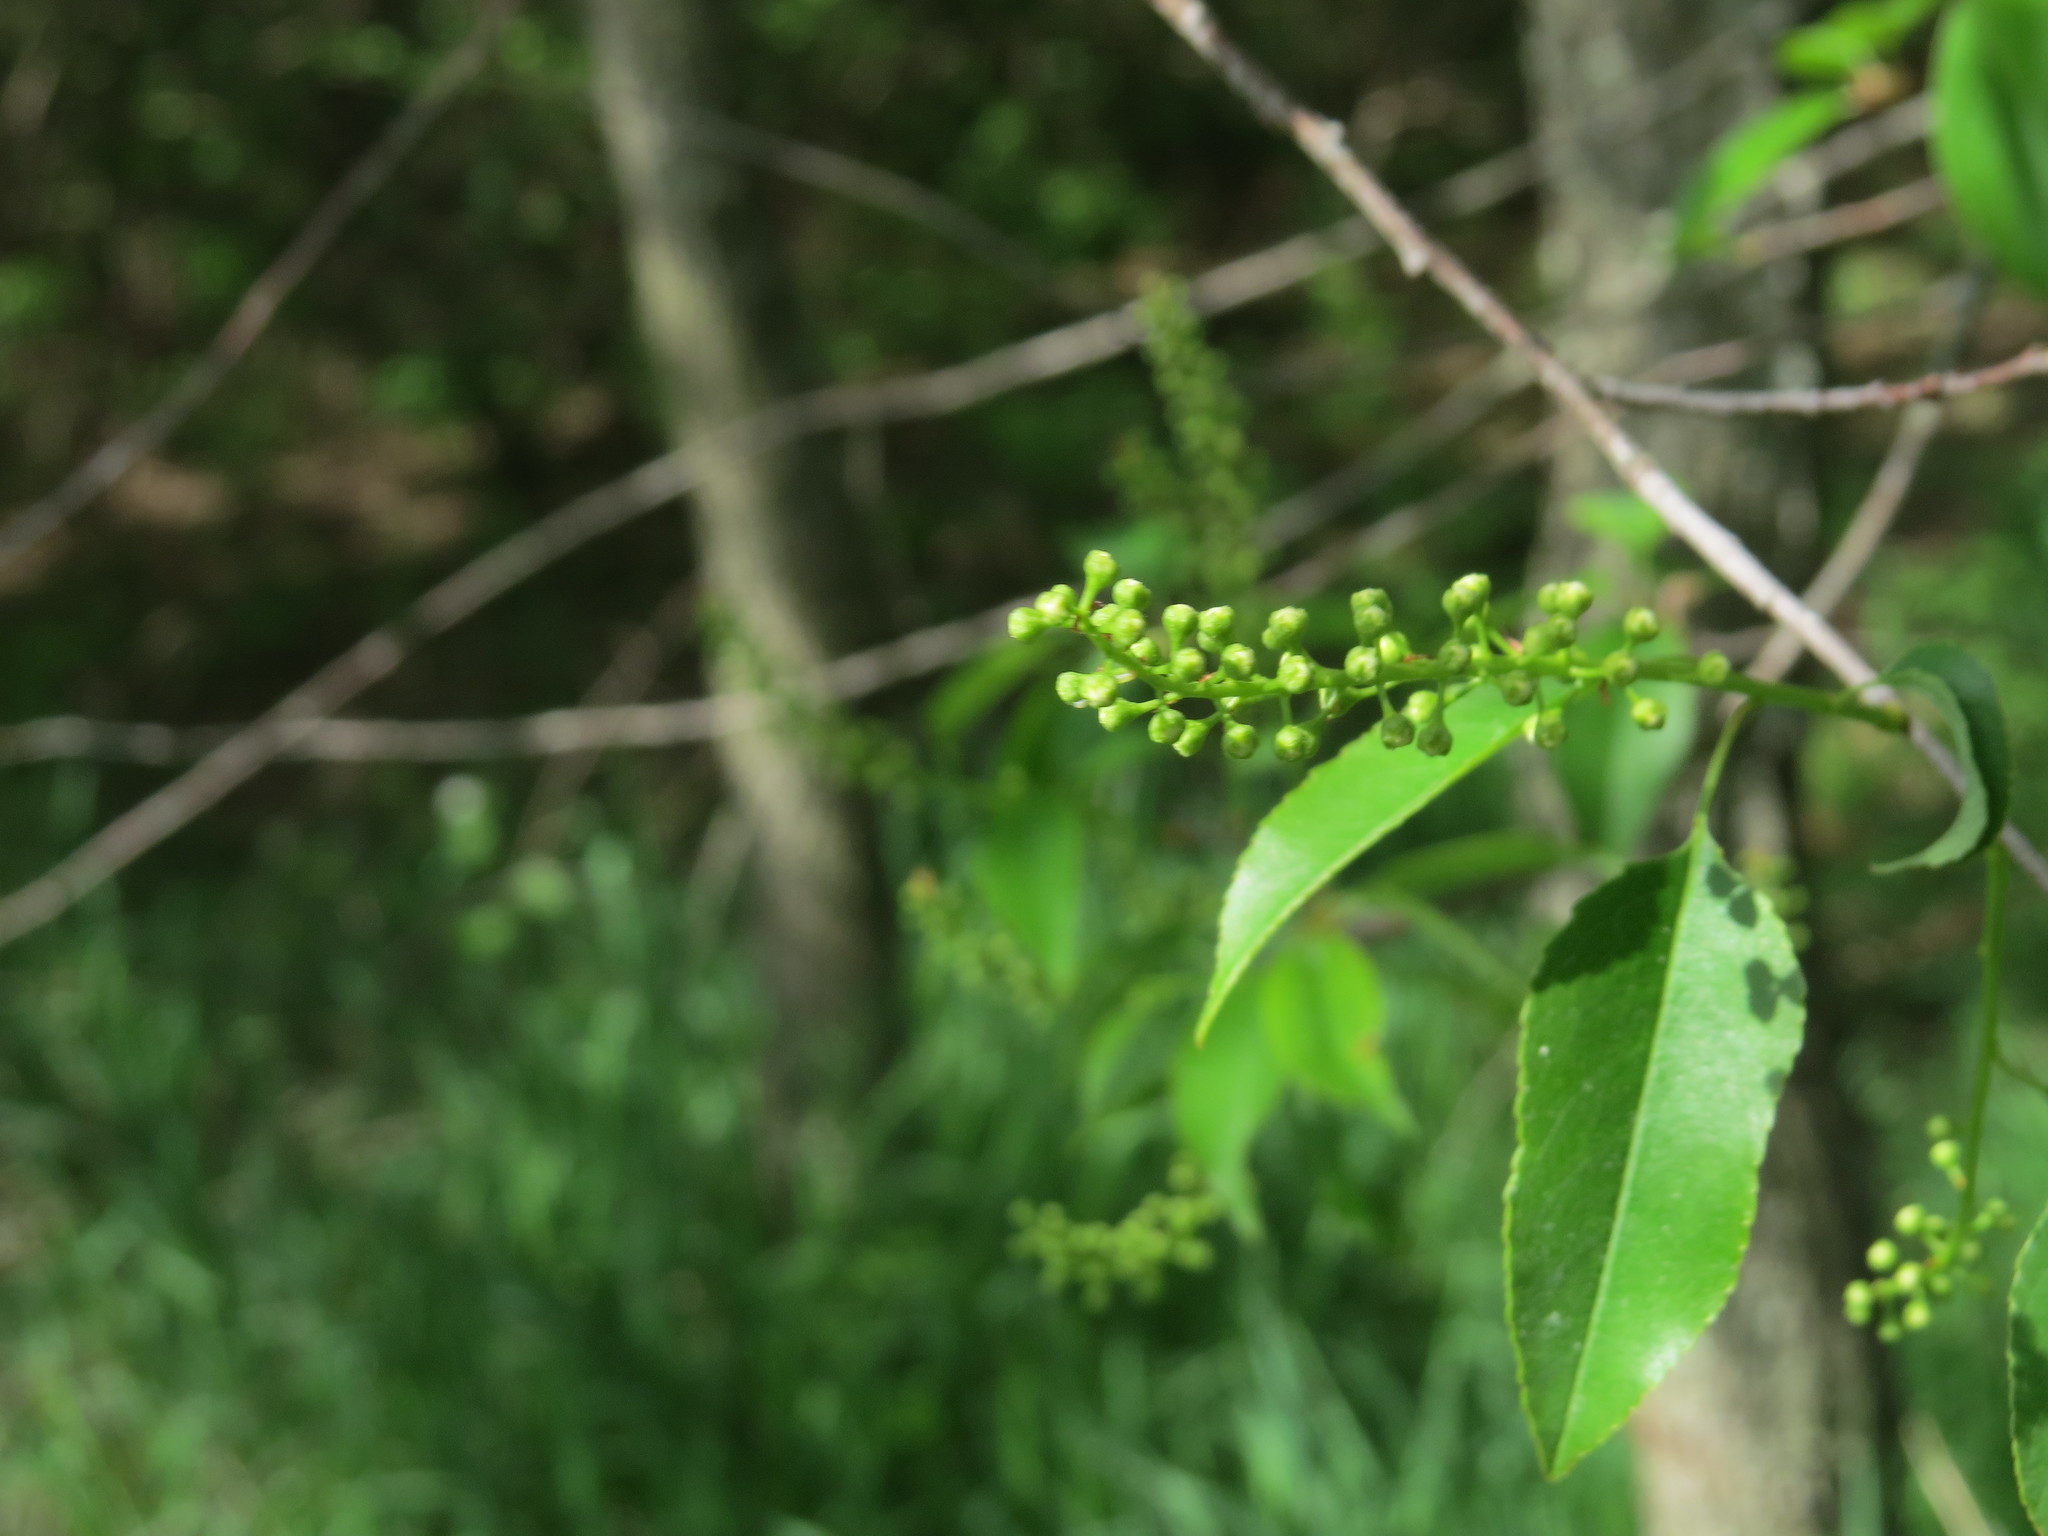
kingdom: Plantae
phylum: Tracheophyta
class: Magnoliopsida
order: Rosales
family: Rosaceae
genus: Prunus
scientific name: Prunus serotina
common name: Black cherry
